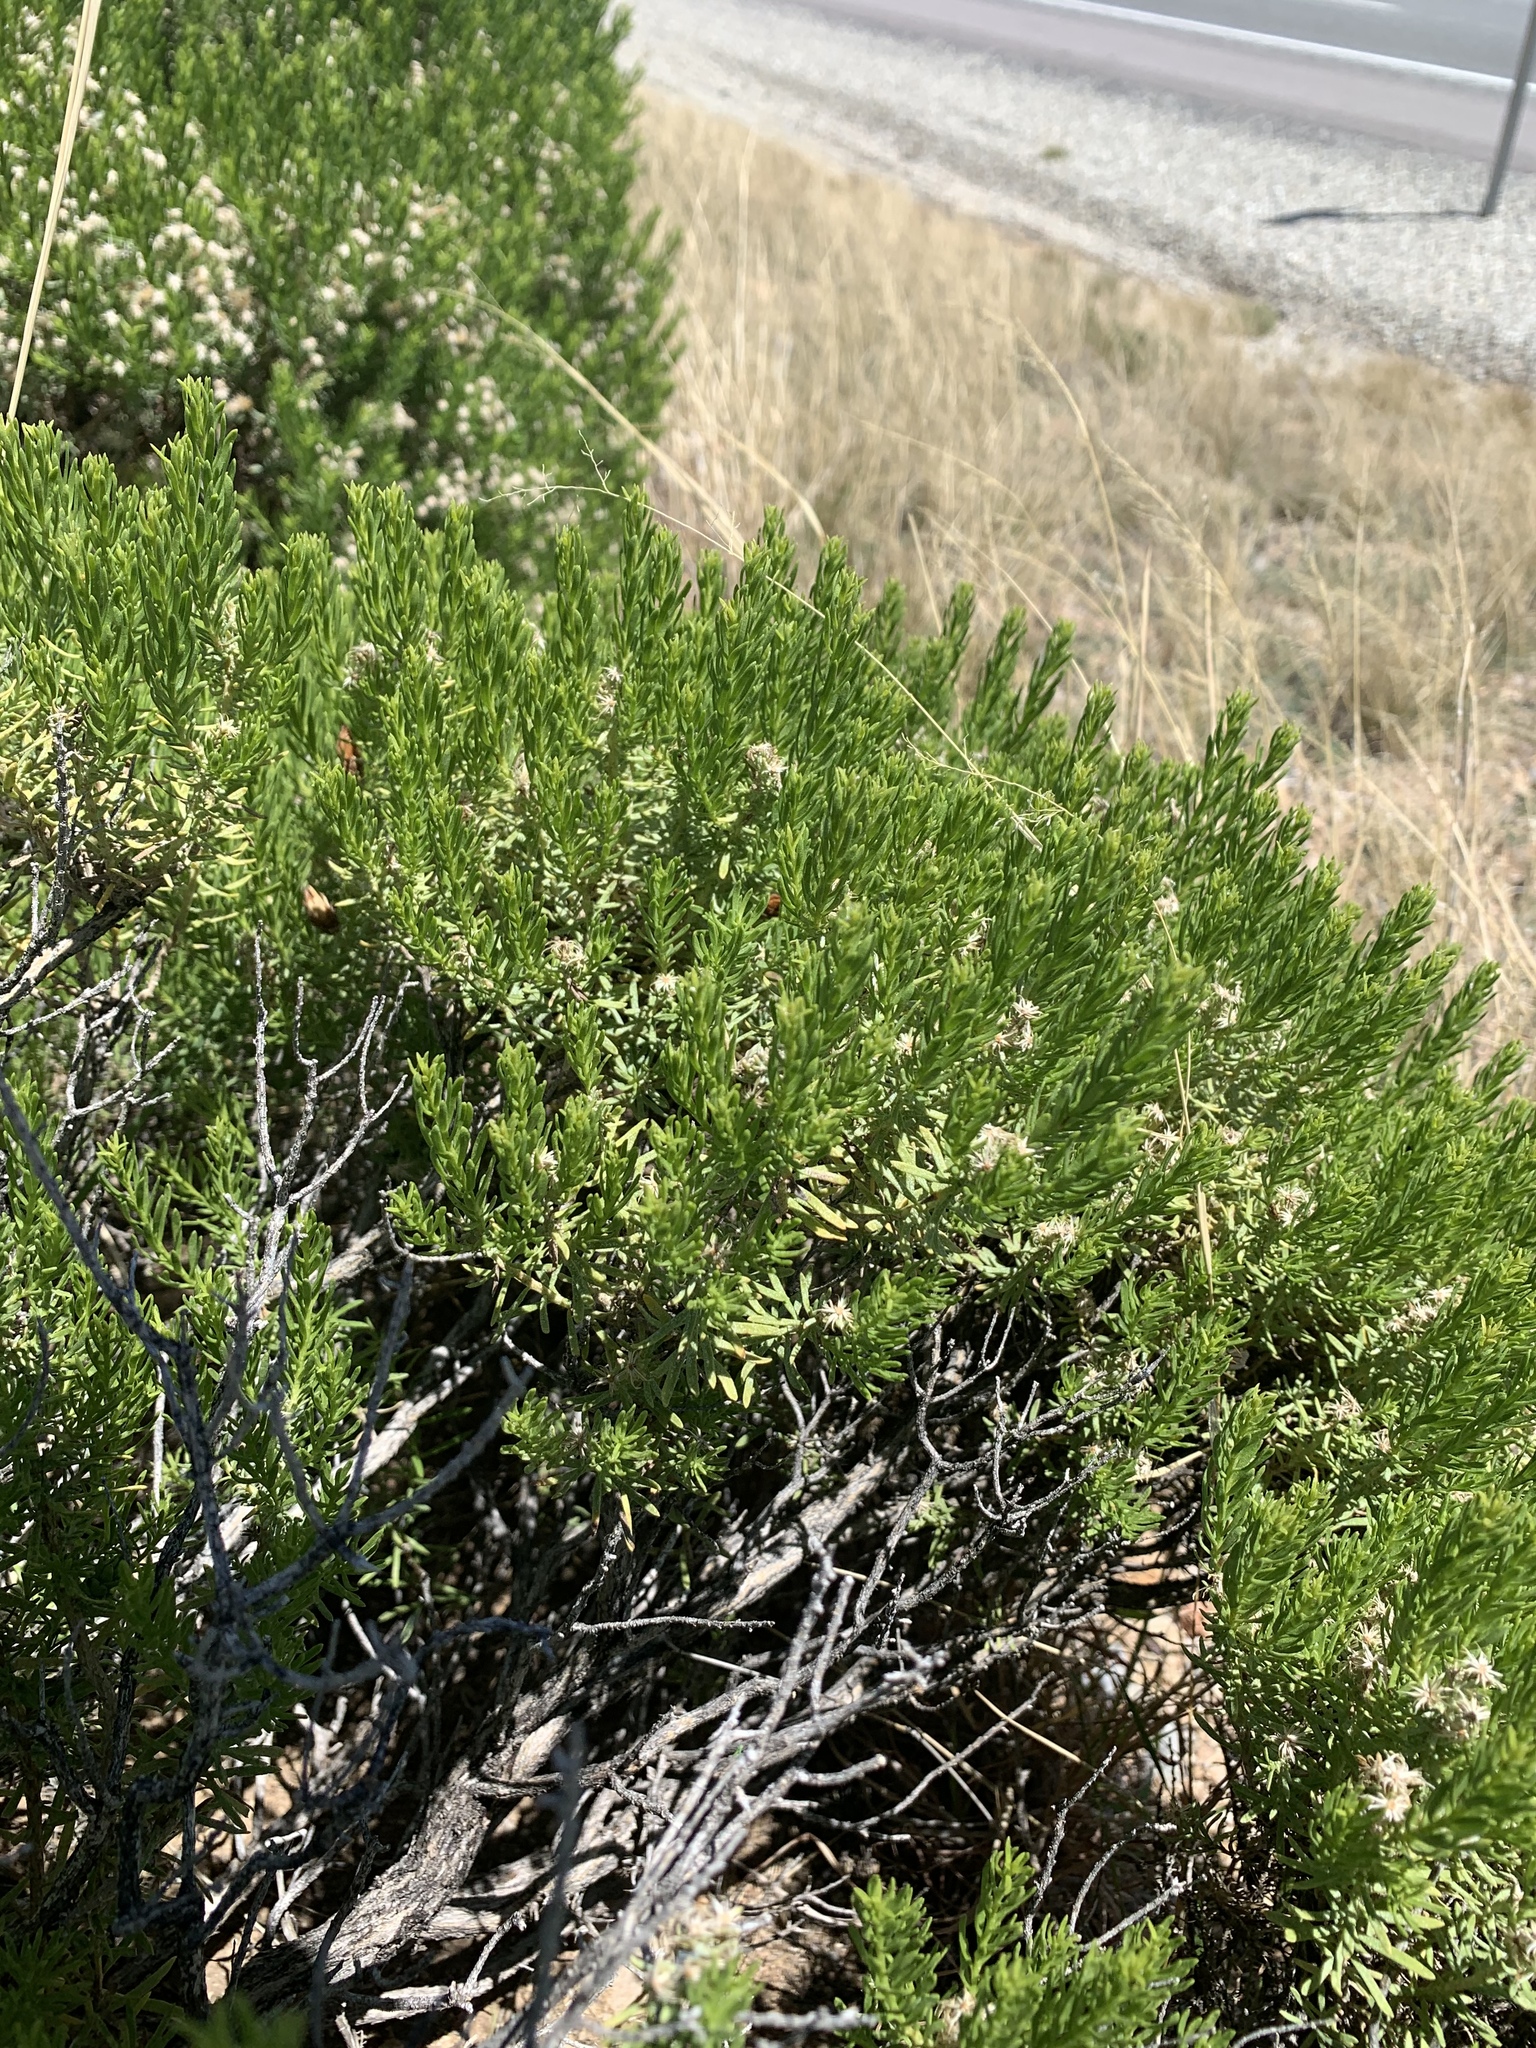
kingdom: Plantae
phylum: Tracheophyta
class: Magnoliopsida
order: Asterales
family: Asteraceae
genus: Ericameria
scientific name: Ericameria laricifolia
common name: Turpentine-bush
